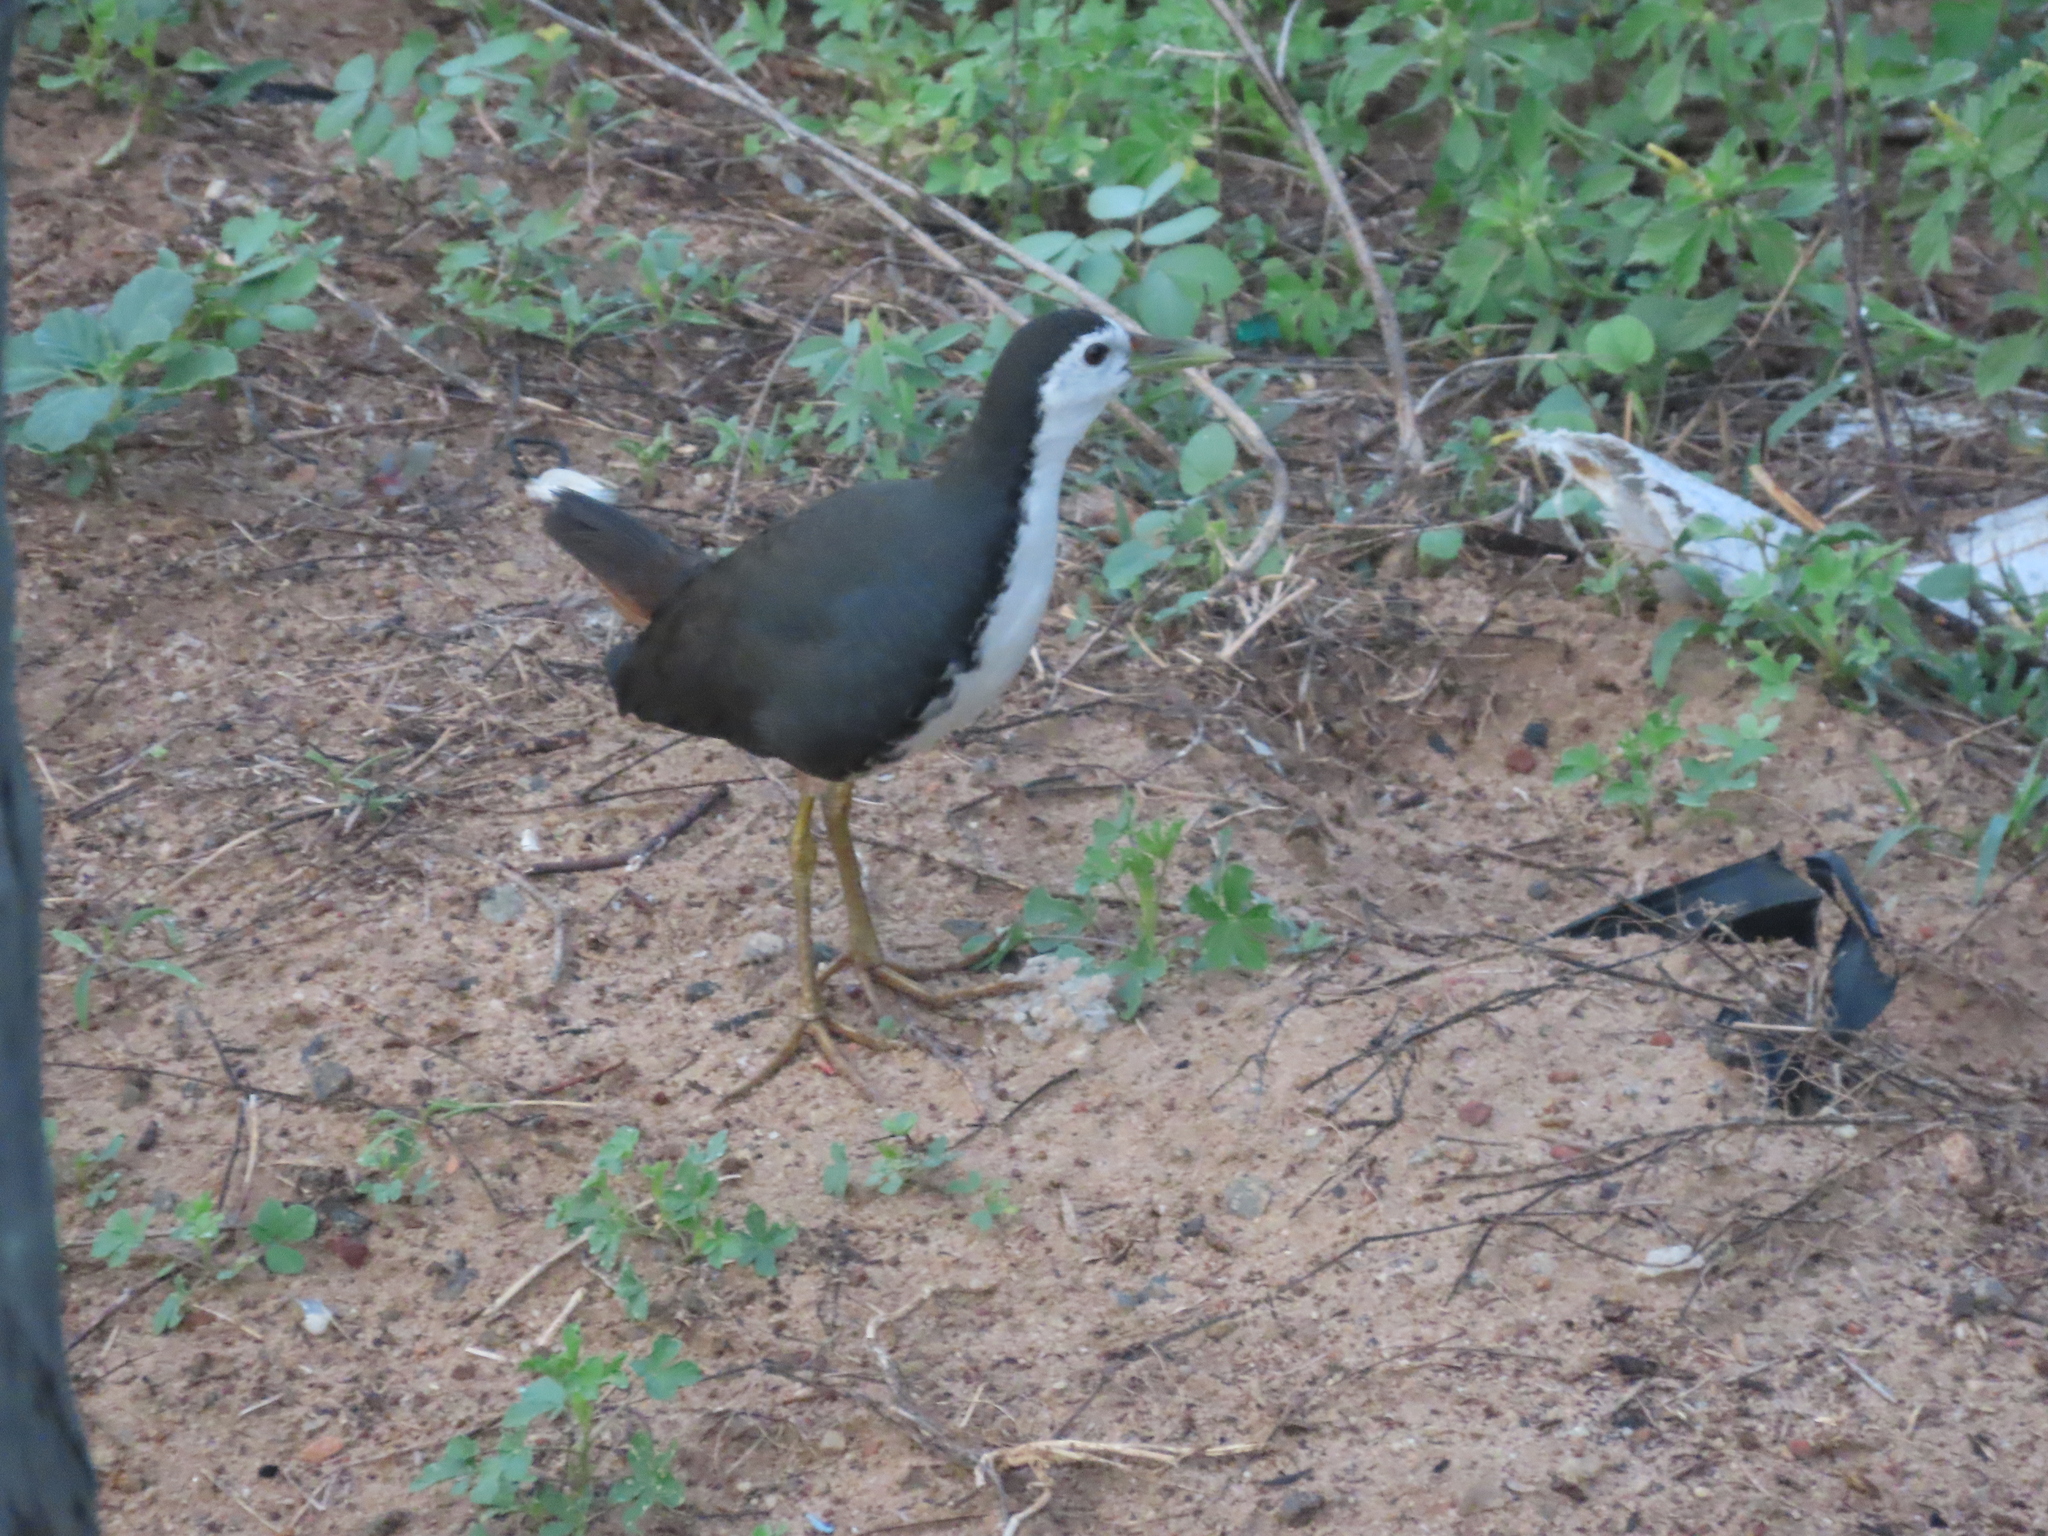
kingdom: Animalia
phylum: Chordata
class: Aves
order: Gruiformes
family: Rallidae
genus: Amaurornis
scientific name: Amaurornis phoenicurus
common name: White-breasted waterhen
